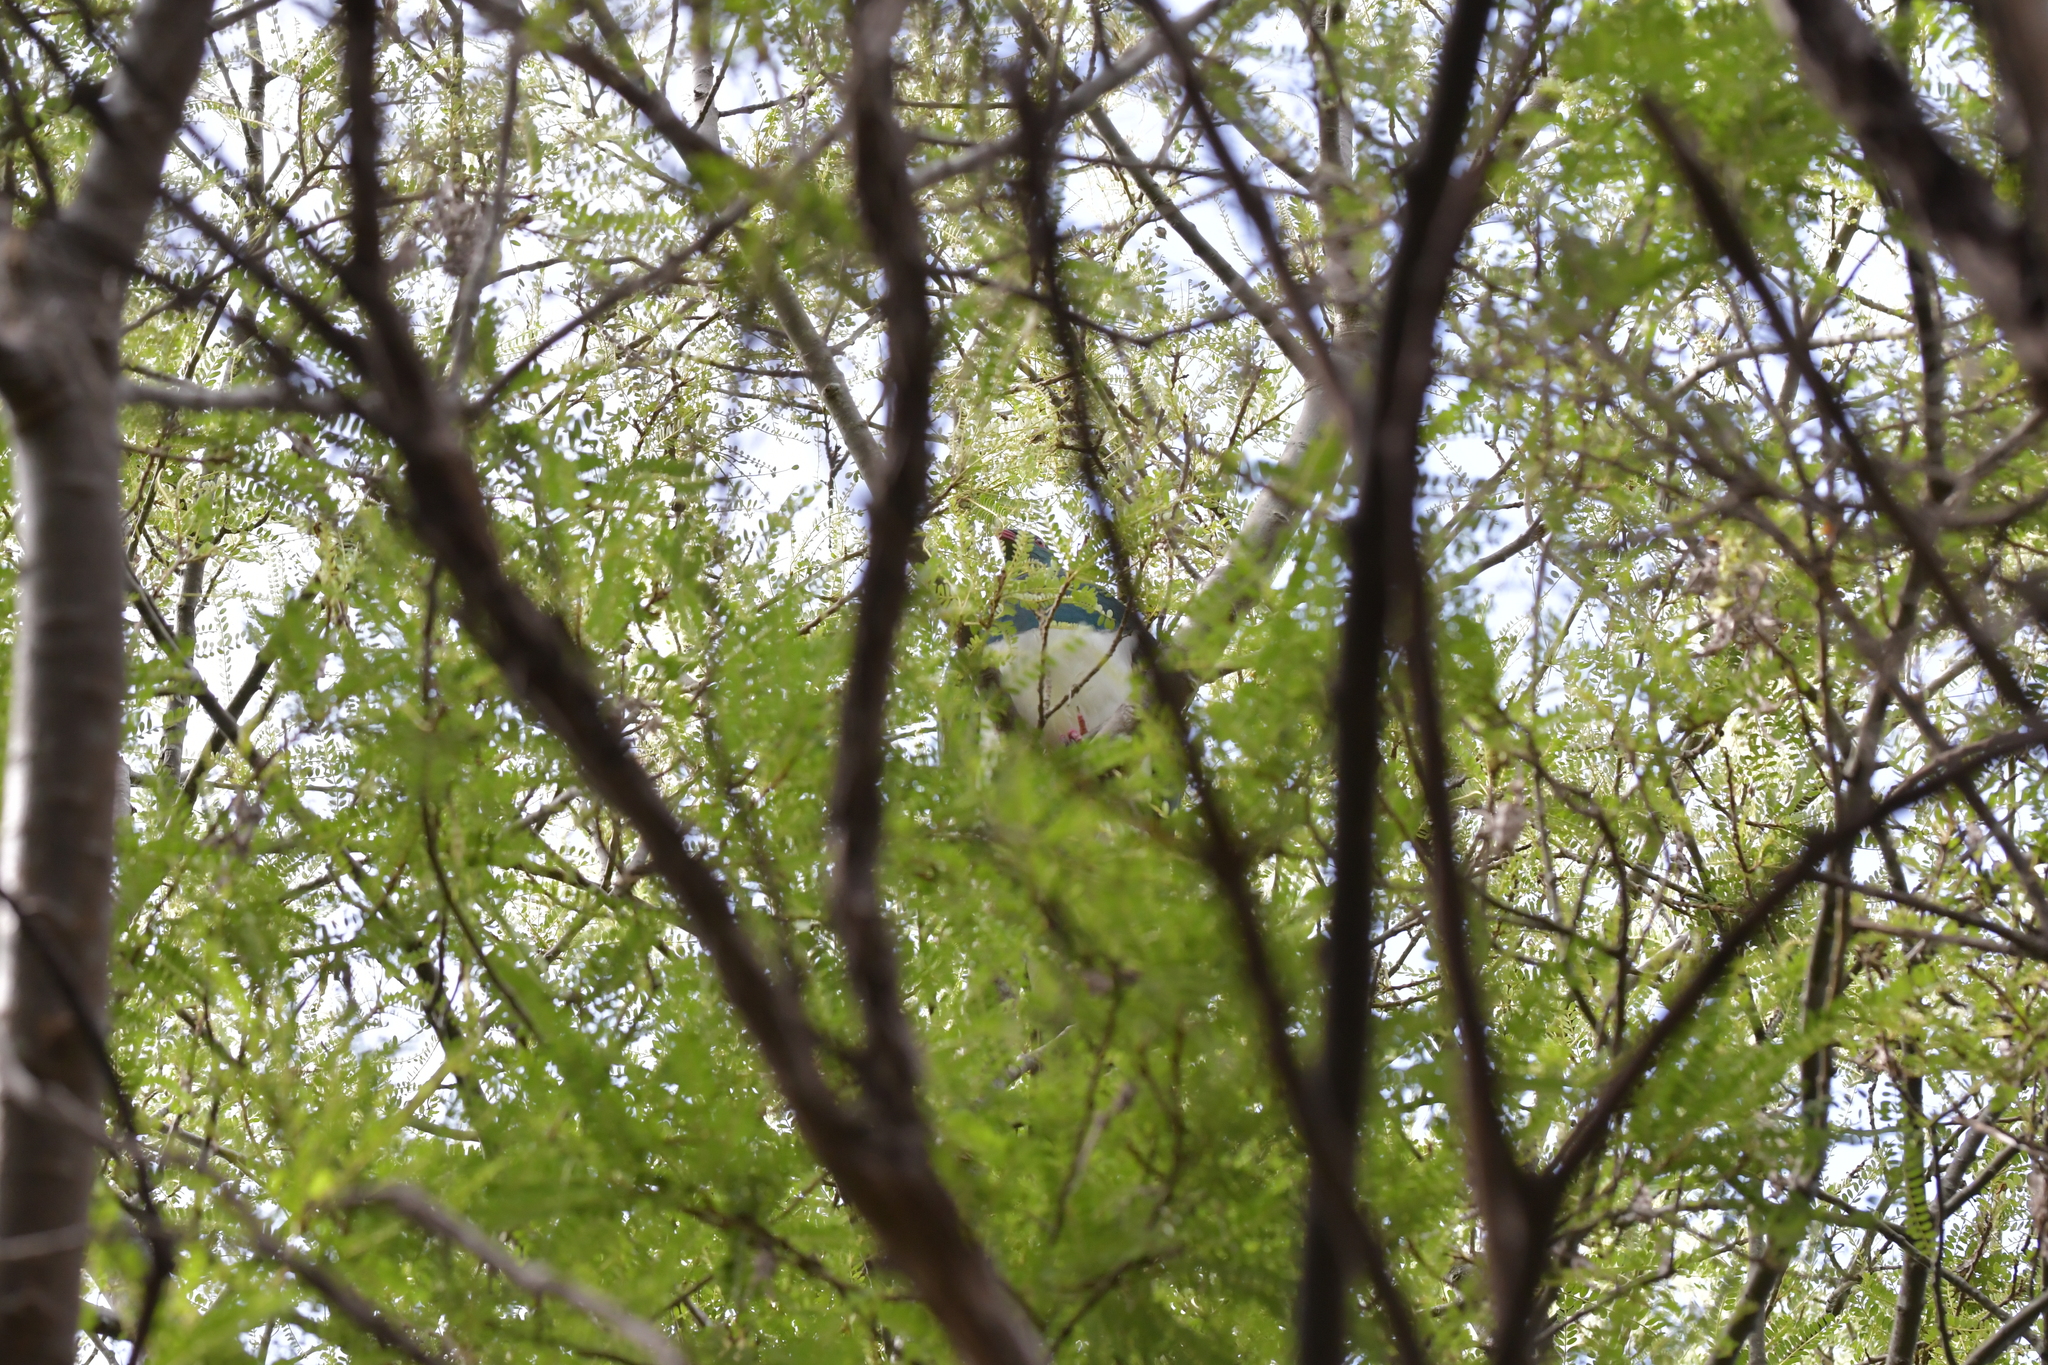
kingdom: Animalia
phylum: Chordata
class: Aves
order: Columbiformes
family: Columbidae
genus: Hemiphaga
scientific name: Hemiphaga novaeseelandiae
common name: New zealand pigeon
